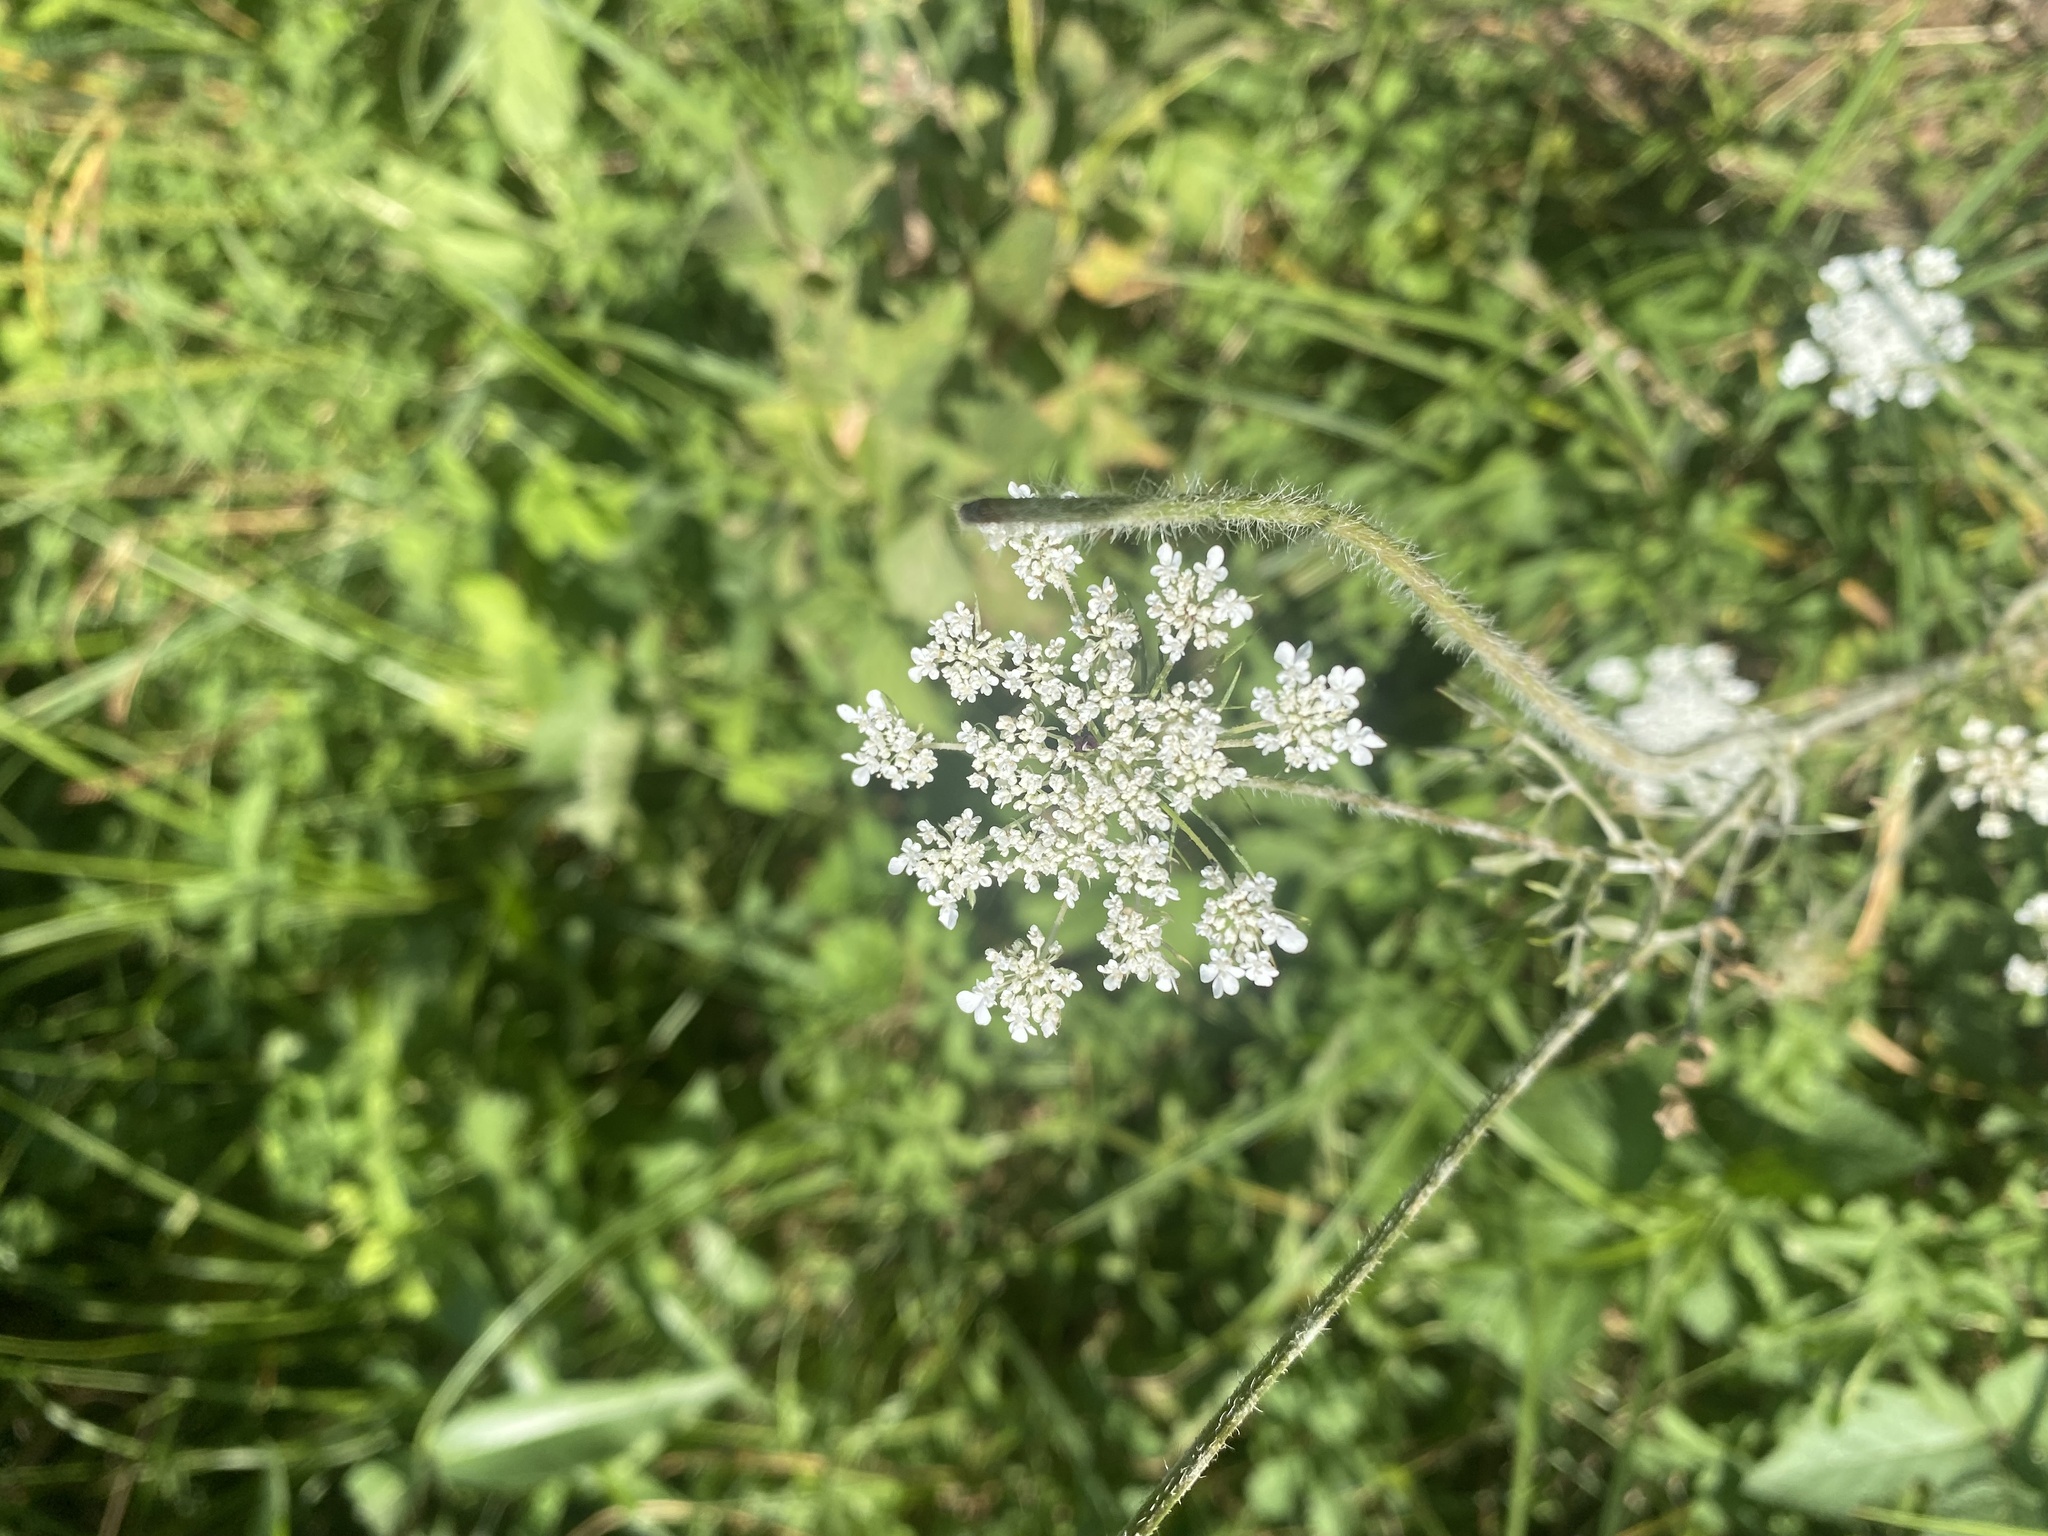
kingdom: Plantae
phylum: Tracheophyta
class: Magnoliopsida
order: Apiales
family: Apiaceae
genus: Daucus
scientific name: Daucus carota
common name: Wild carrot
